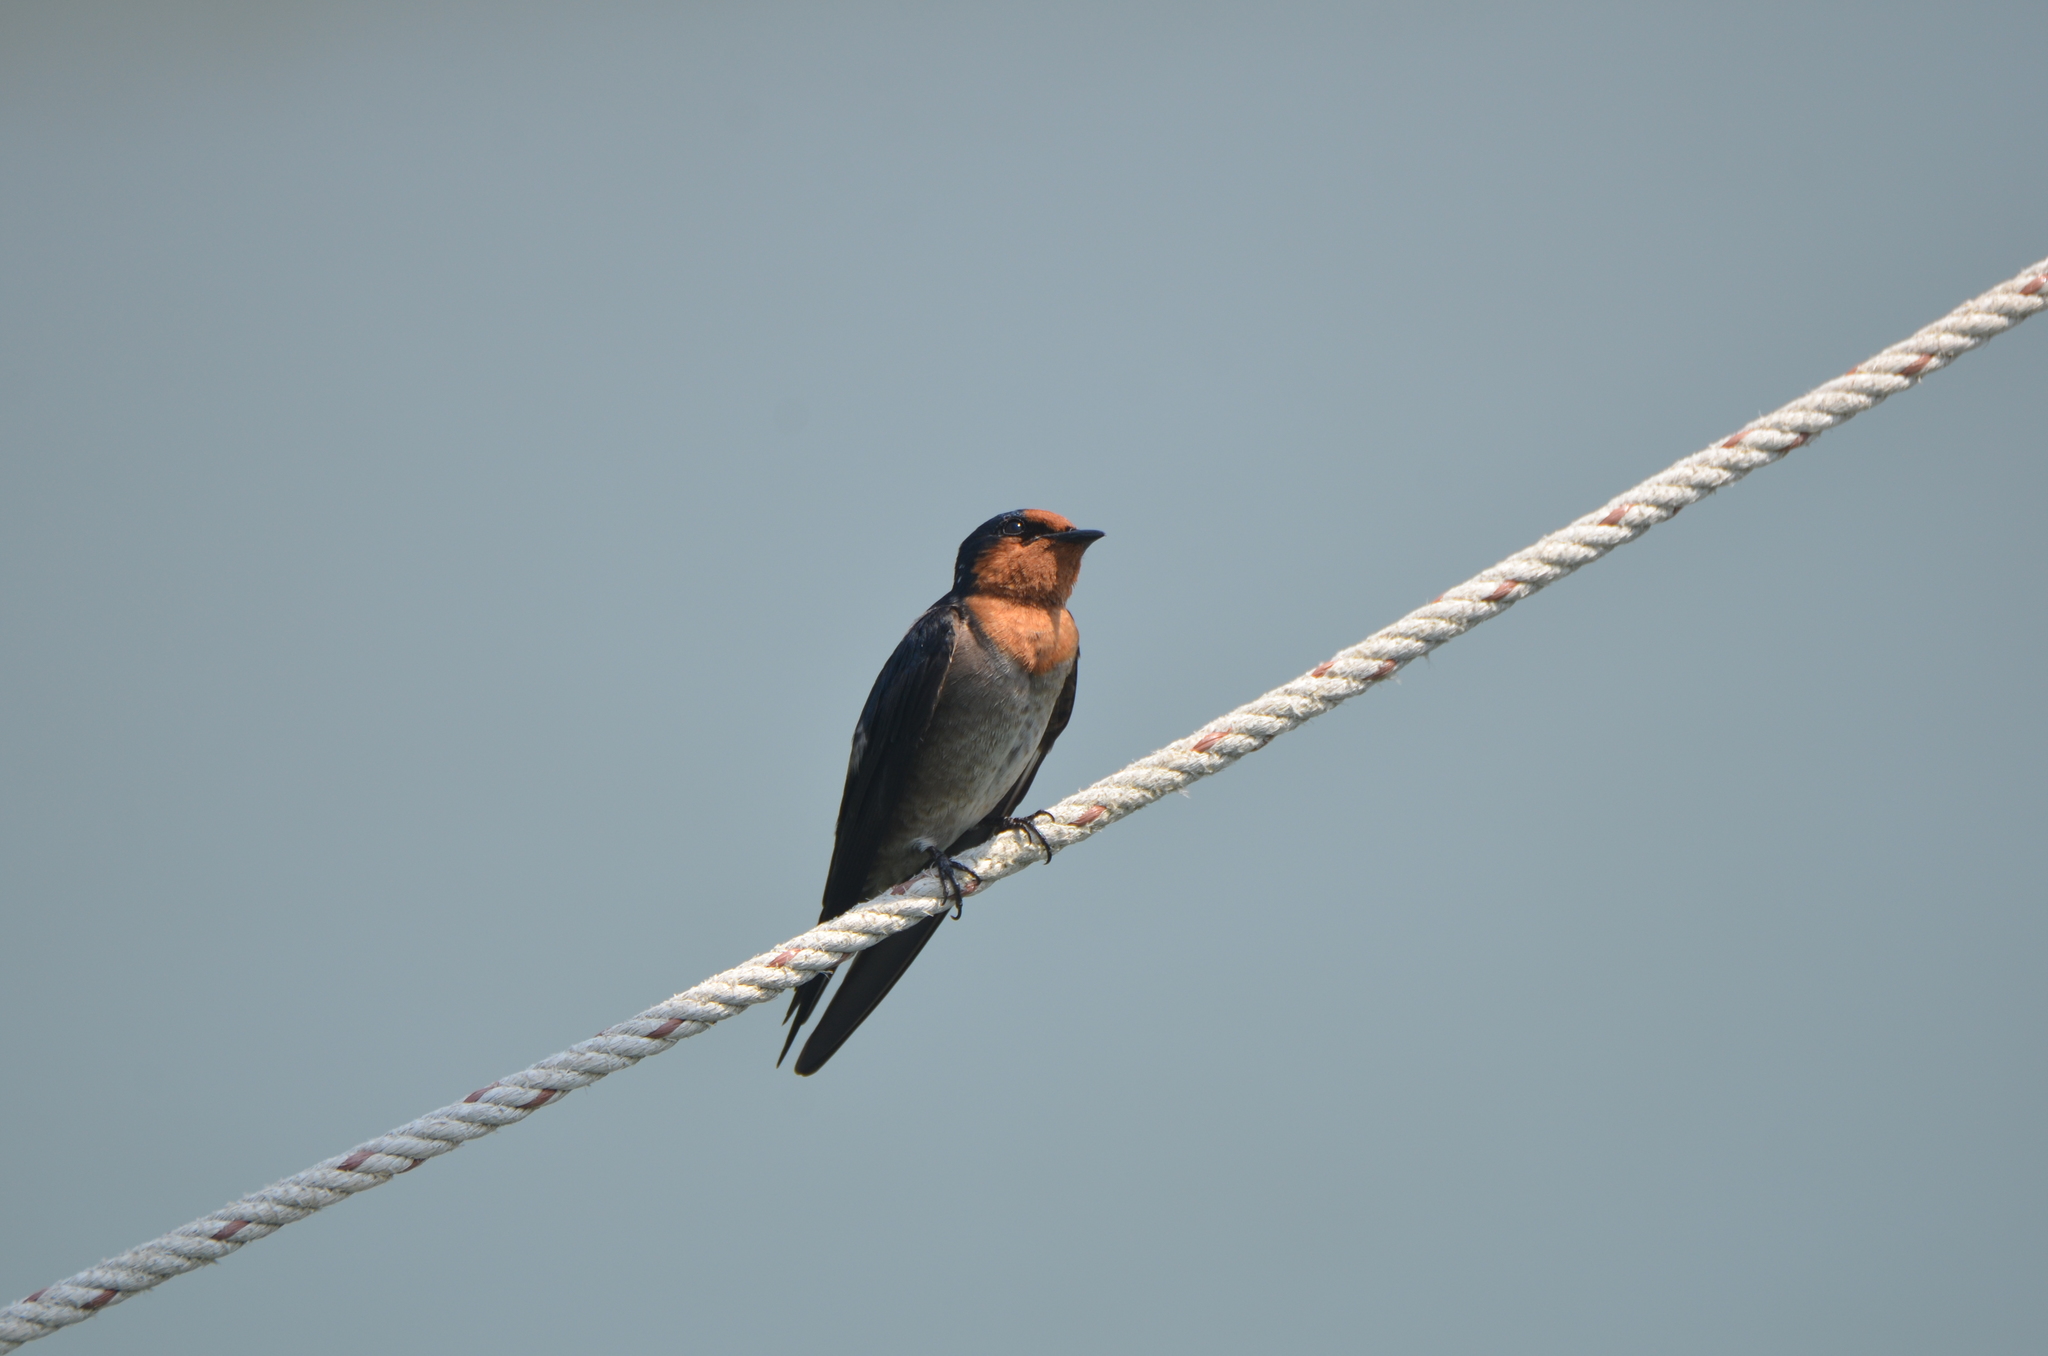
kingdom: Animalia
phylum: Chordata
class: Aves
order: Passeriformes
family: Hirundinidae
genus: Hirundo
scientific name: Hirundo tahitica
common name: Pacific swallow
